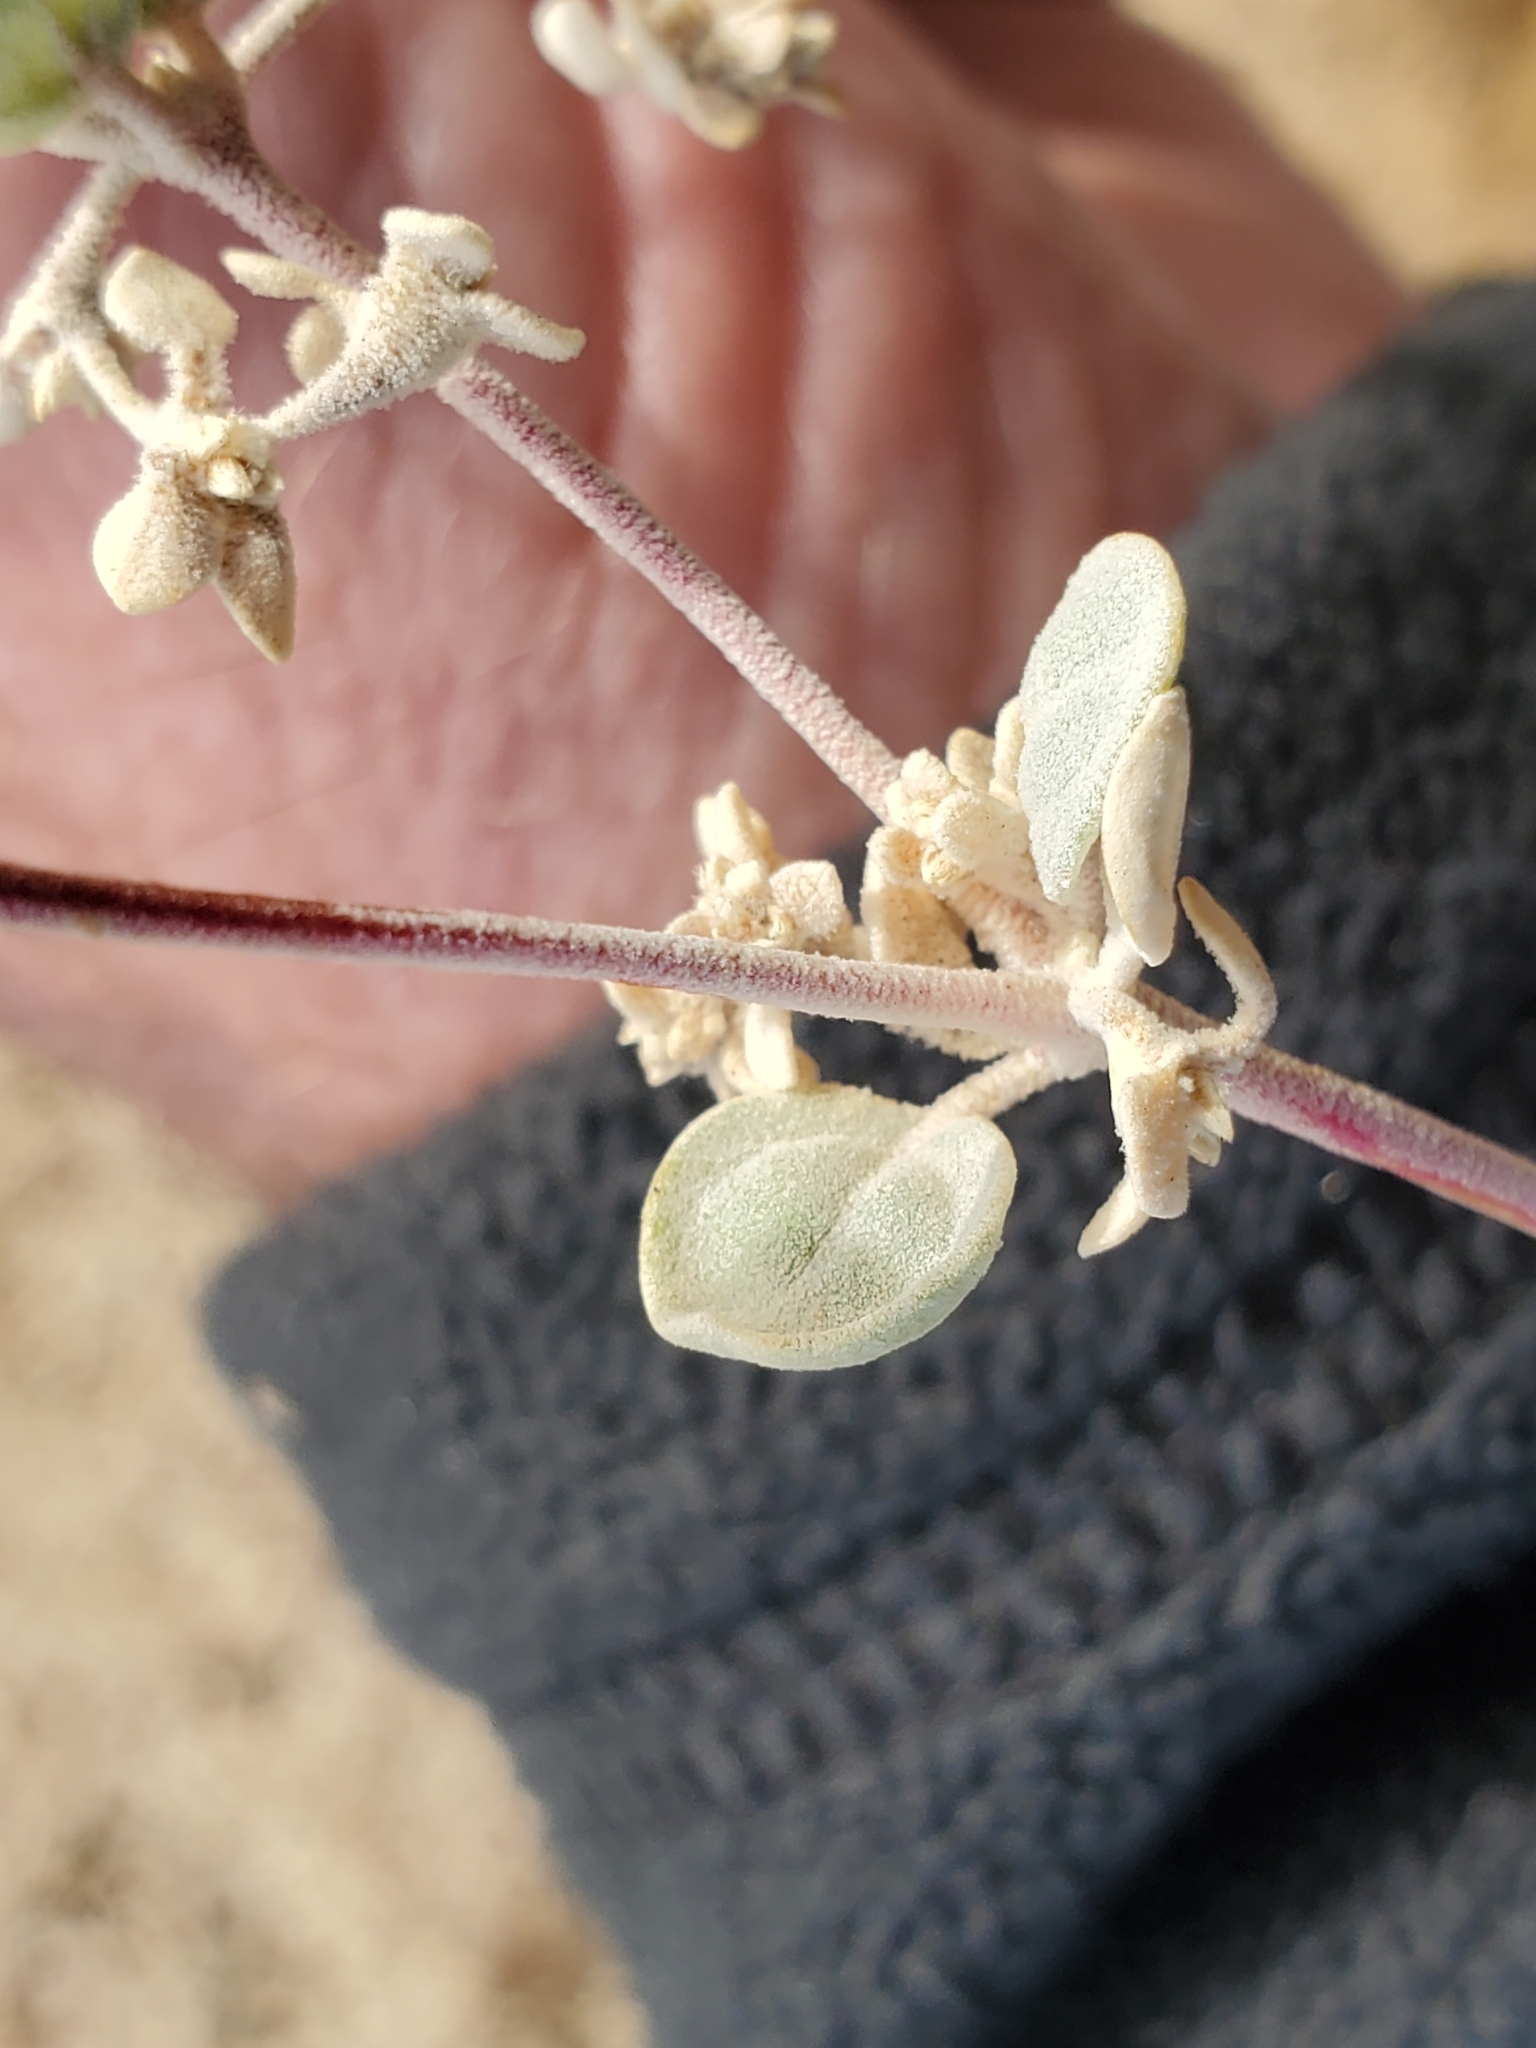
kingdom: Plantae
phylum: Tracheophyta
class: Magnoliopsida
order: Caryophyllales
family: Amaranthaceae
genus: Tidestromia
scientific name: Tidestromia suffruticosa
